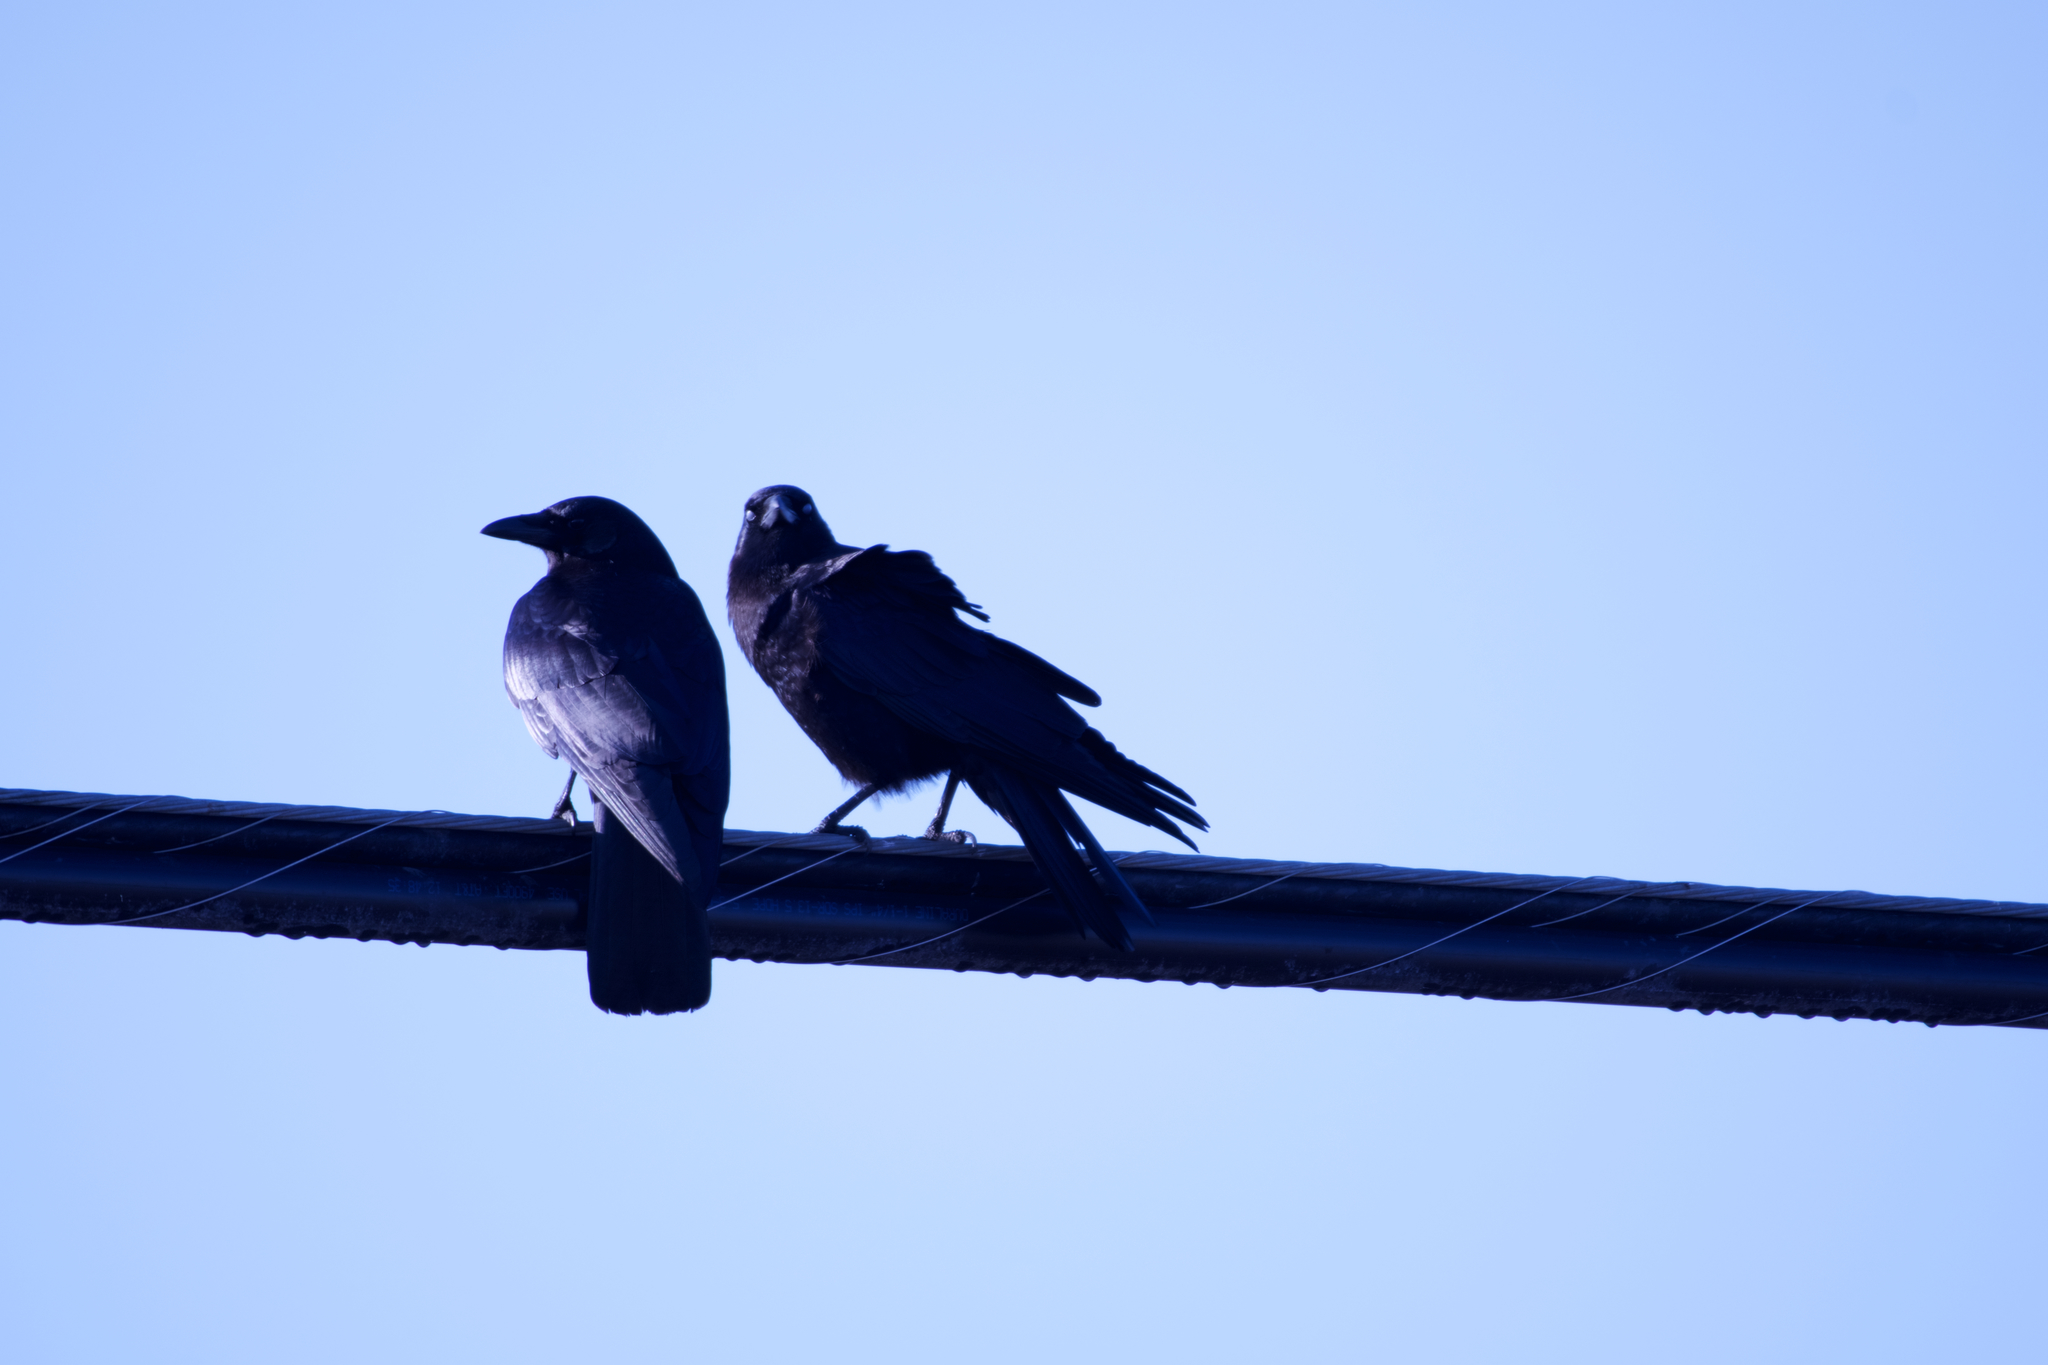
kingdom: Animalia
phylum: Chordata
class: Aves
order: Passeriformes
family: Corvidae
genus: Corvus
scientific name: Corvus brachyrhynchos
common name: American crow
